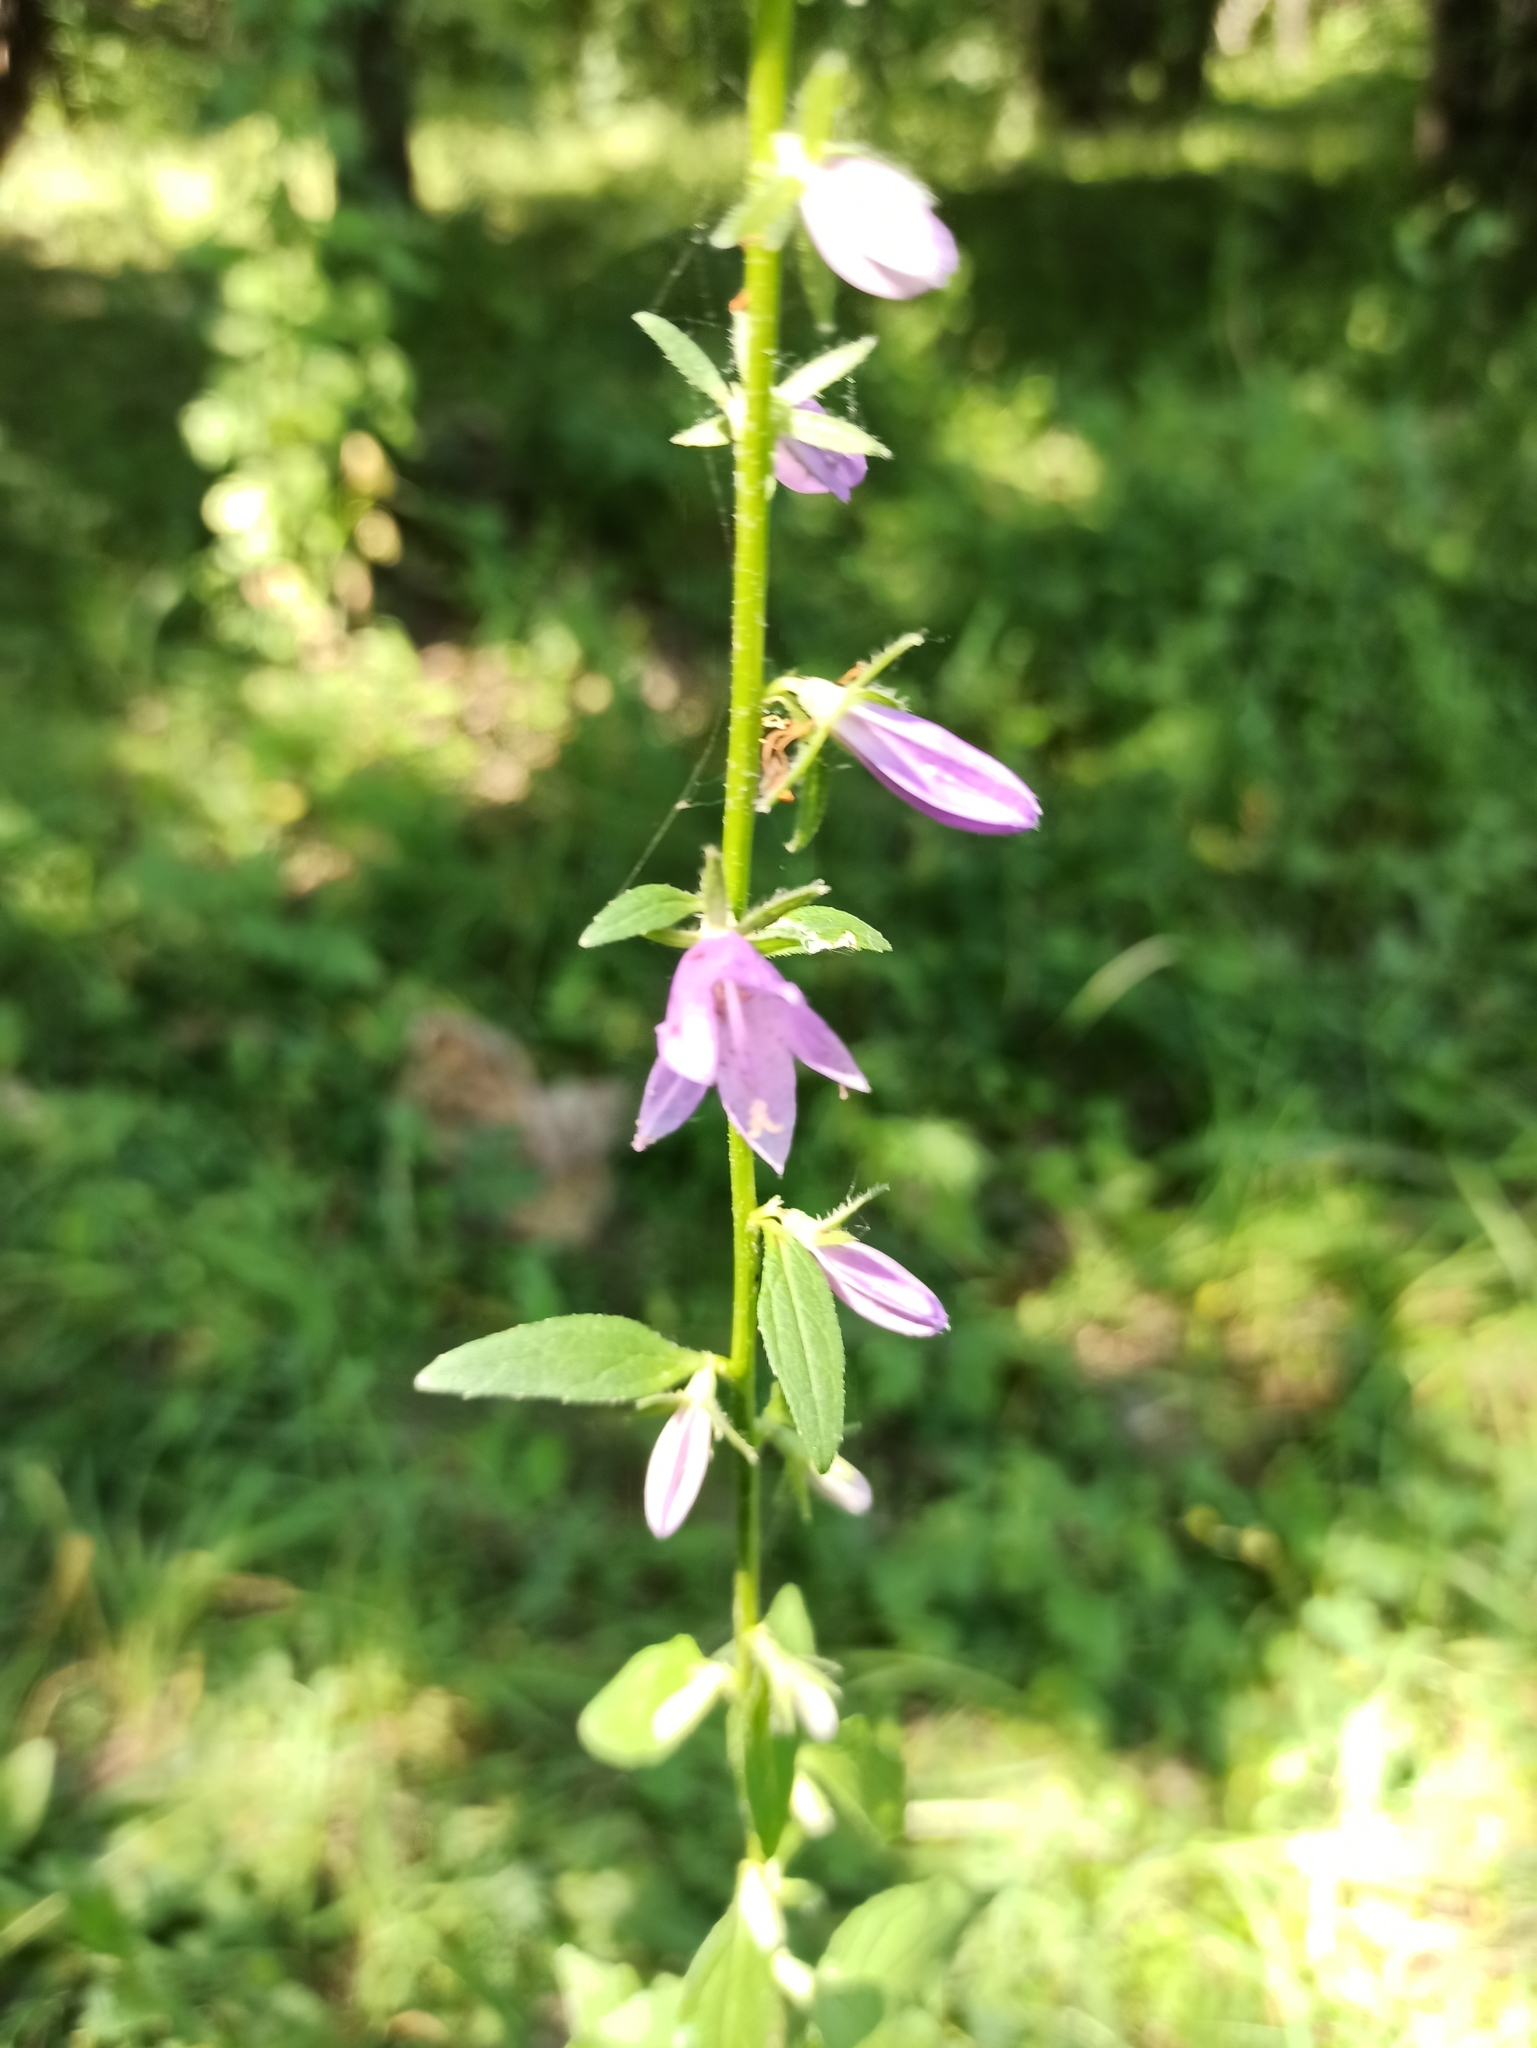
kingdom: Plantae
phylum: Tracheophyta
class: Magnoliopsida
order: Asterales
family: Campanulaceae
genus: Campanula
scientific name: Campanula rapunculoides
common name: Creeping bellflower
